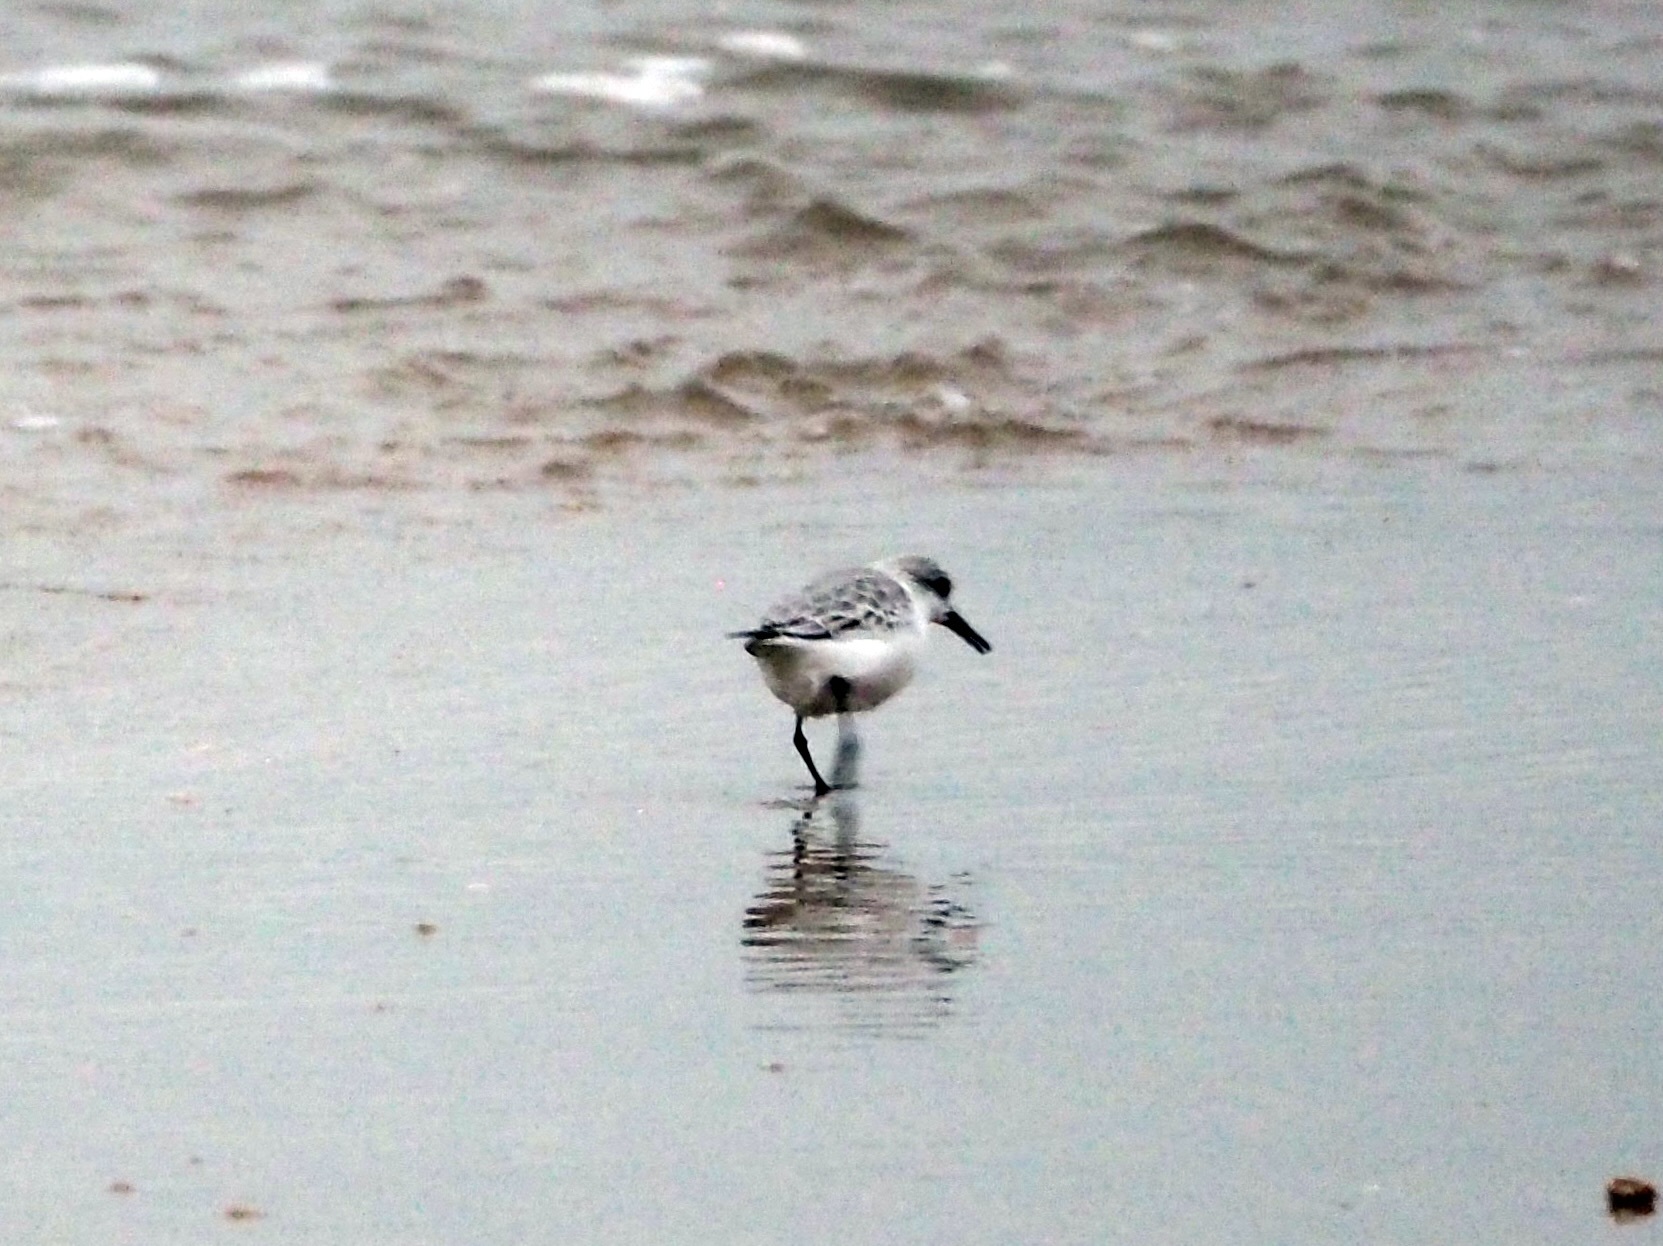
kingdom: Animalia
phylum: Chordata
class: Aves
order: Charadriiformes
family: Scolopacidae
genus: Calidris
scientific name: Calidris alba
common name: Sanderling
